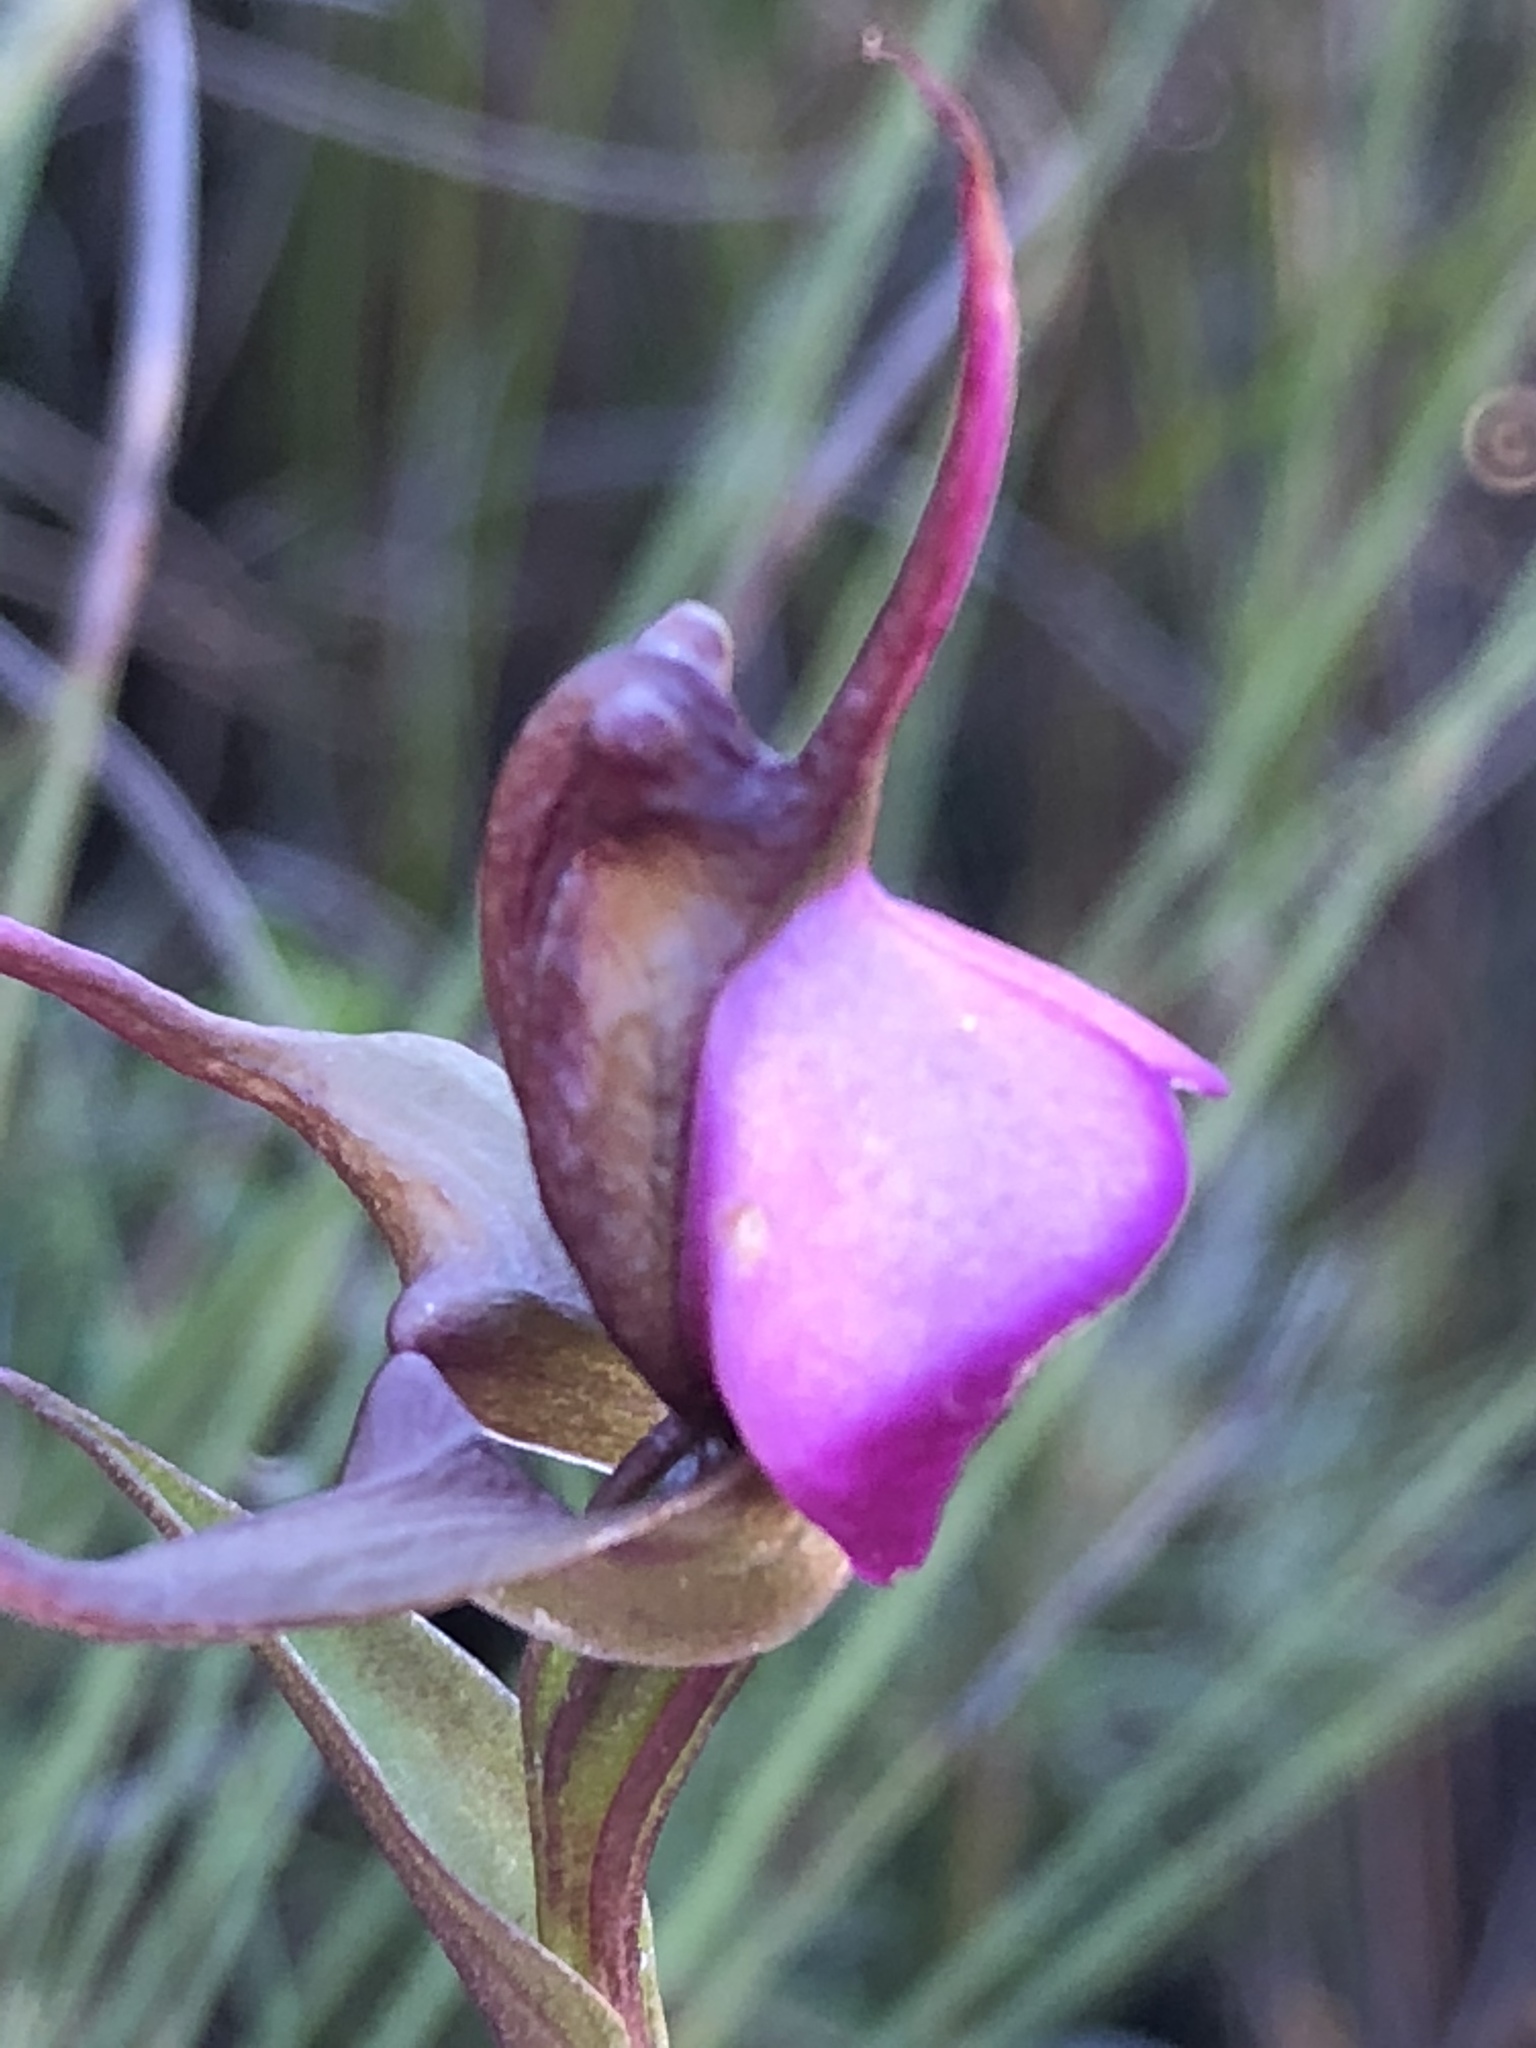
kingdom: Plantae
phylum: Tracheophyta
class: Liliopsida
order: Asparagales
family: Orchidaceae
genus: Disperis
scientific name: Disperis capensis
